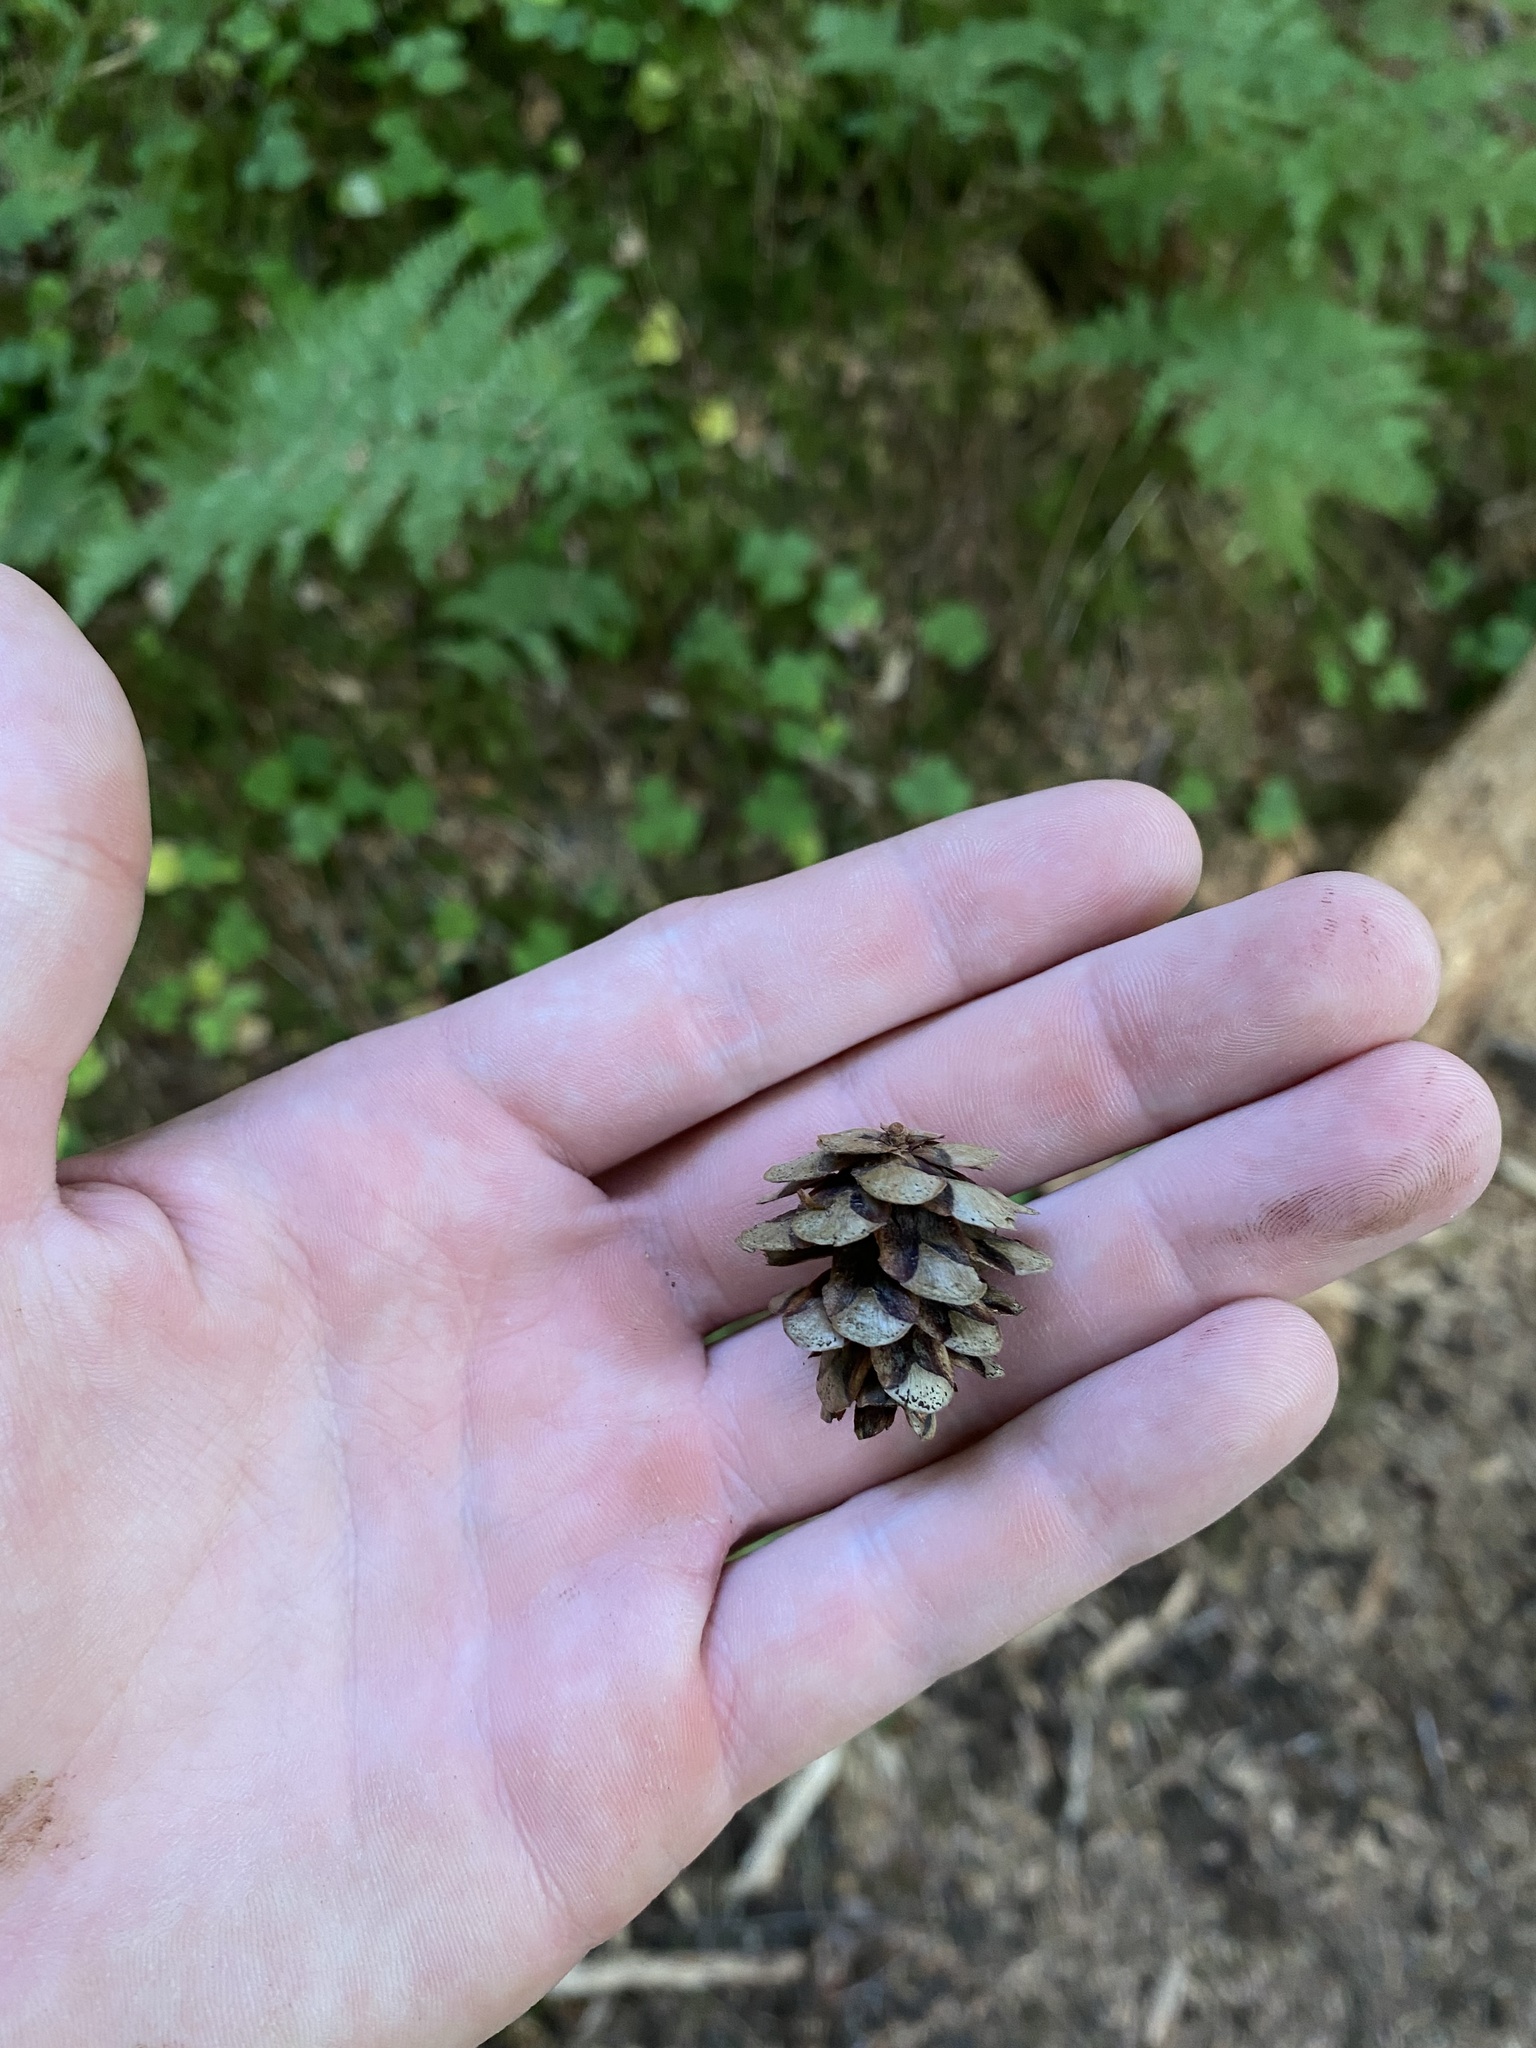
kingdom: Plantae
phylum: Tracheophyta
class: Pinopsida
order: Pinales
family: Pinaceae
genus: Tsuga
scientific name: Tsuga heterophylla
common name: Western hemlock
